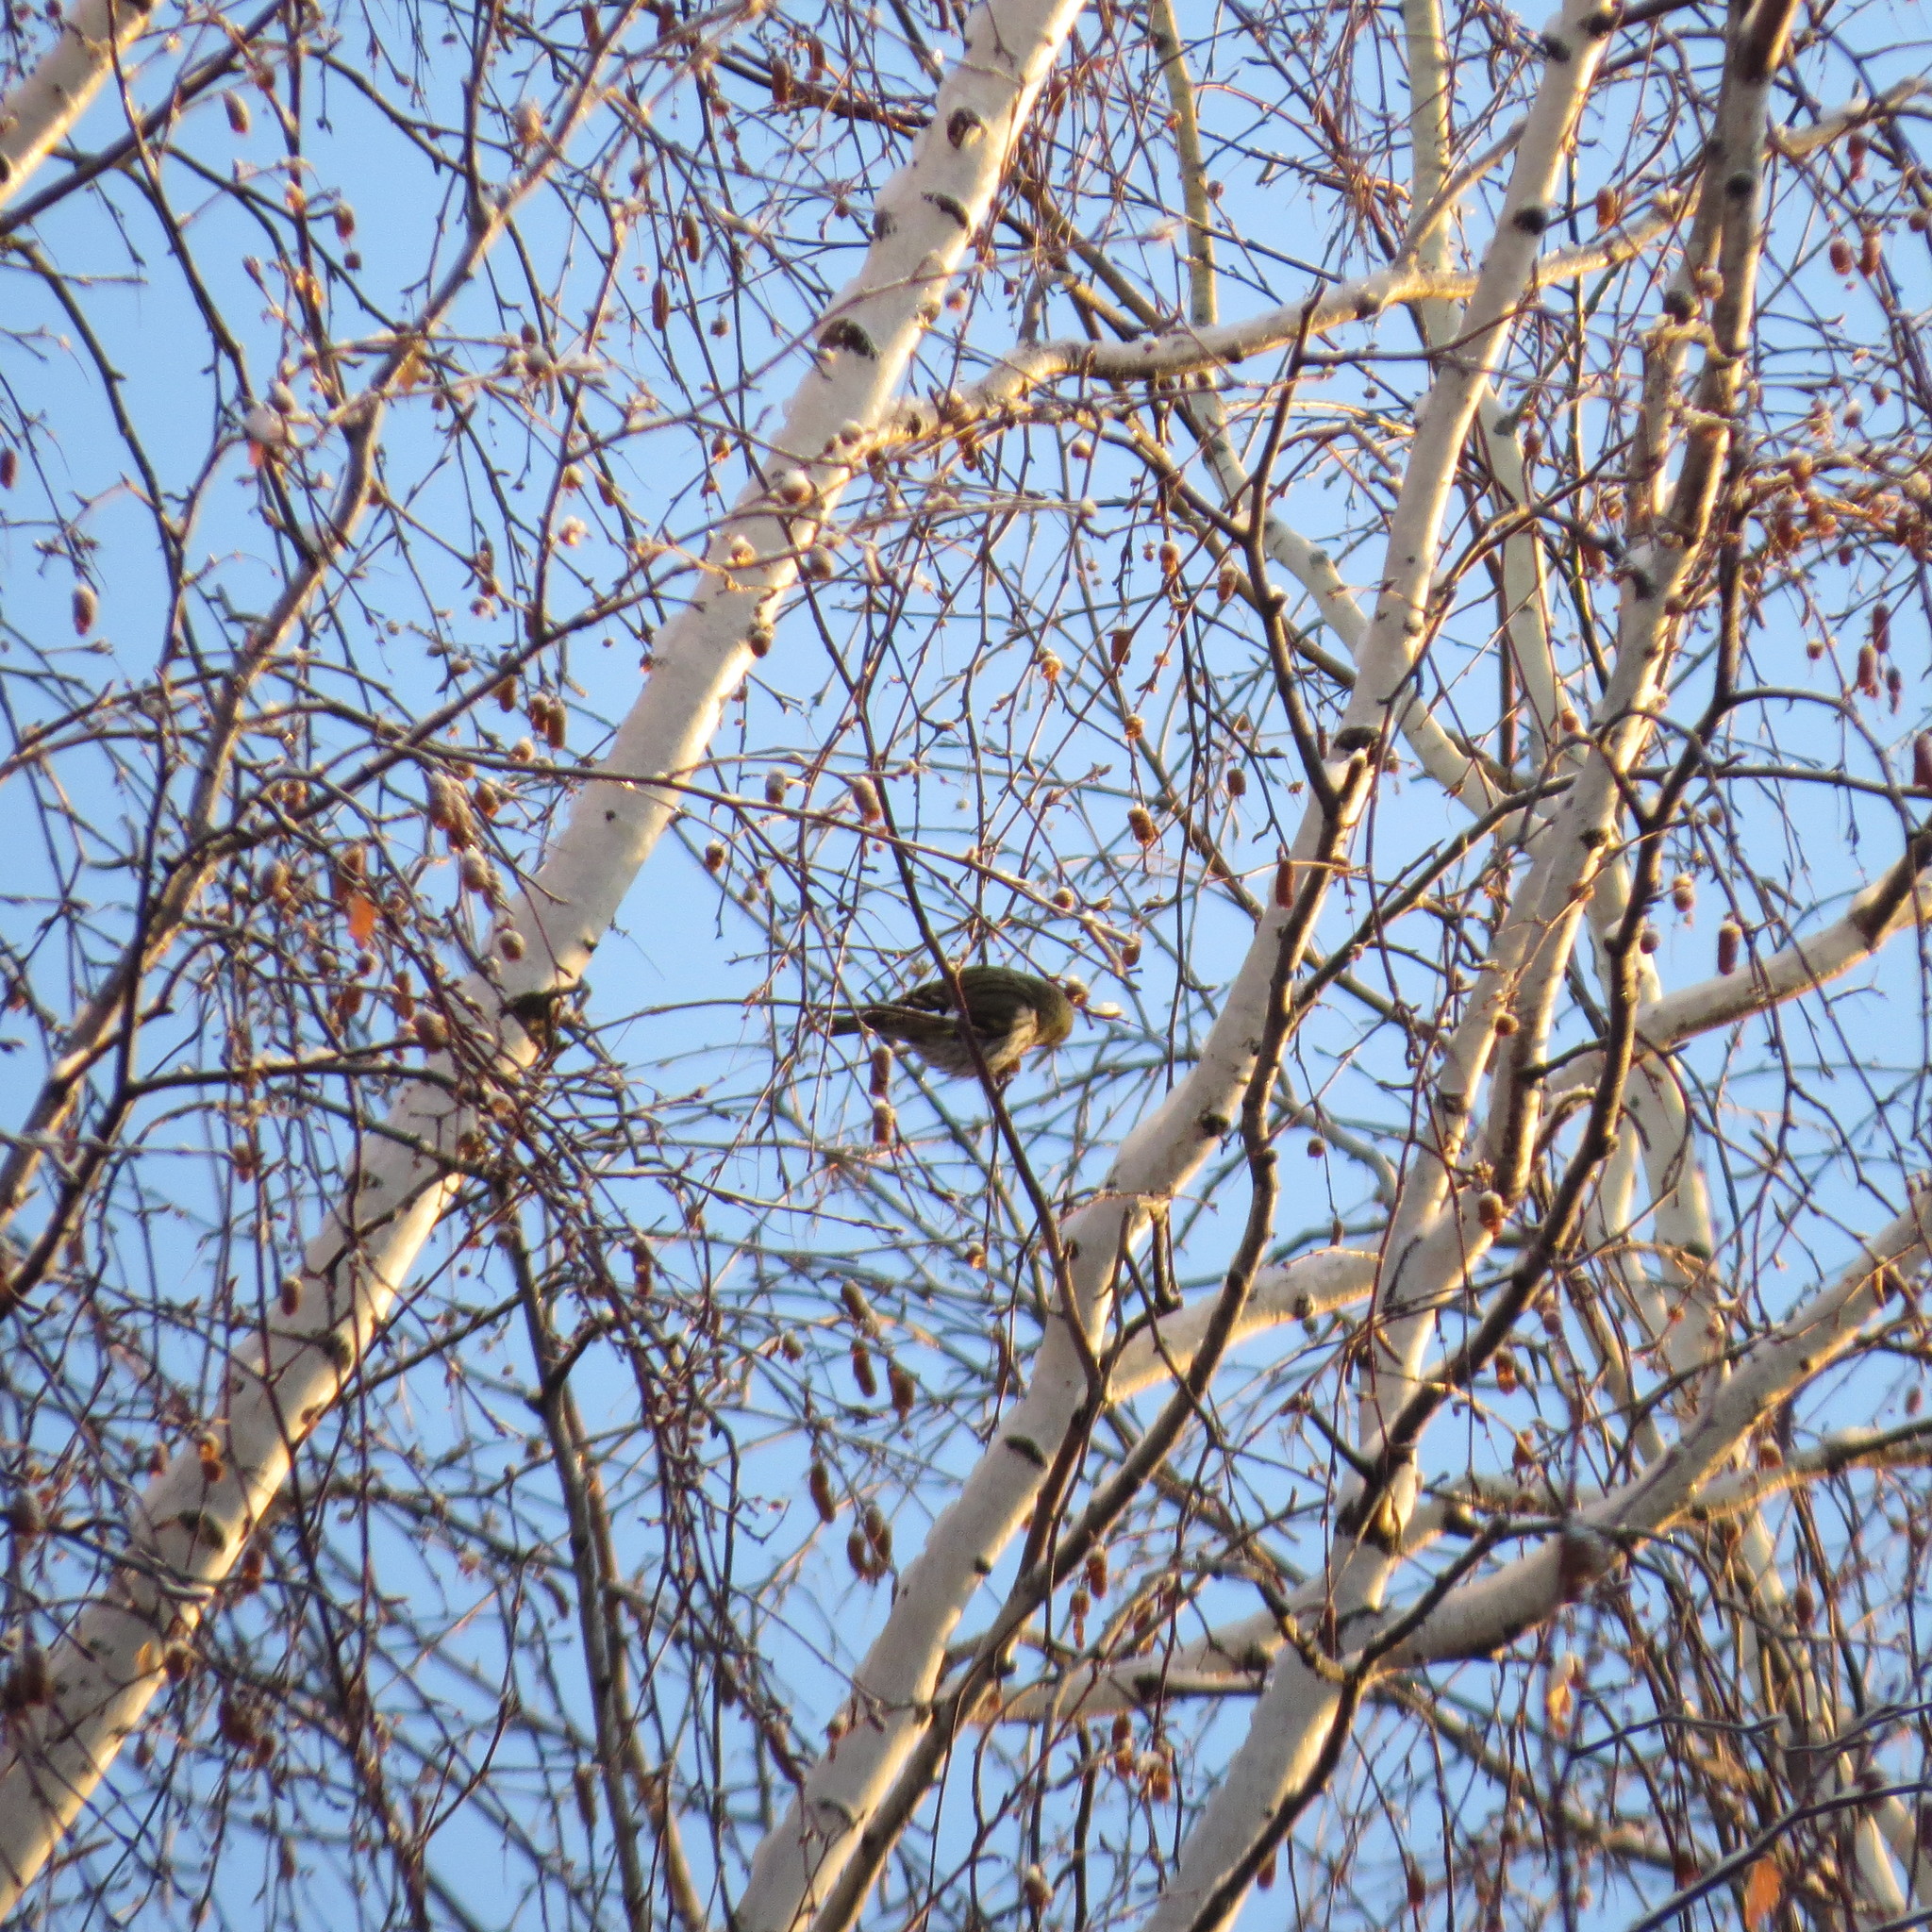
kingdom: Animalia
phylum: Chordata
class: Aves
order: Passeriformes
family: Fringillidae
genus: Spinus
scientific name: Spinus spinus
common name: Eurasian siskin
